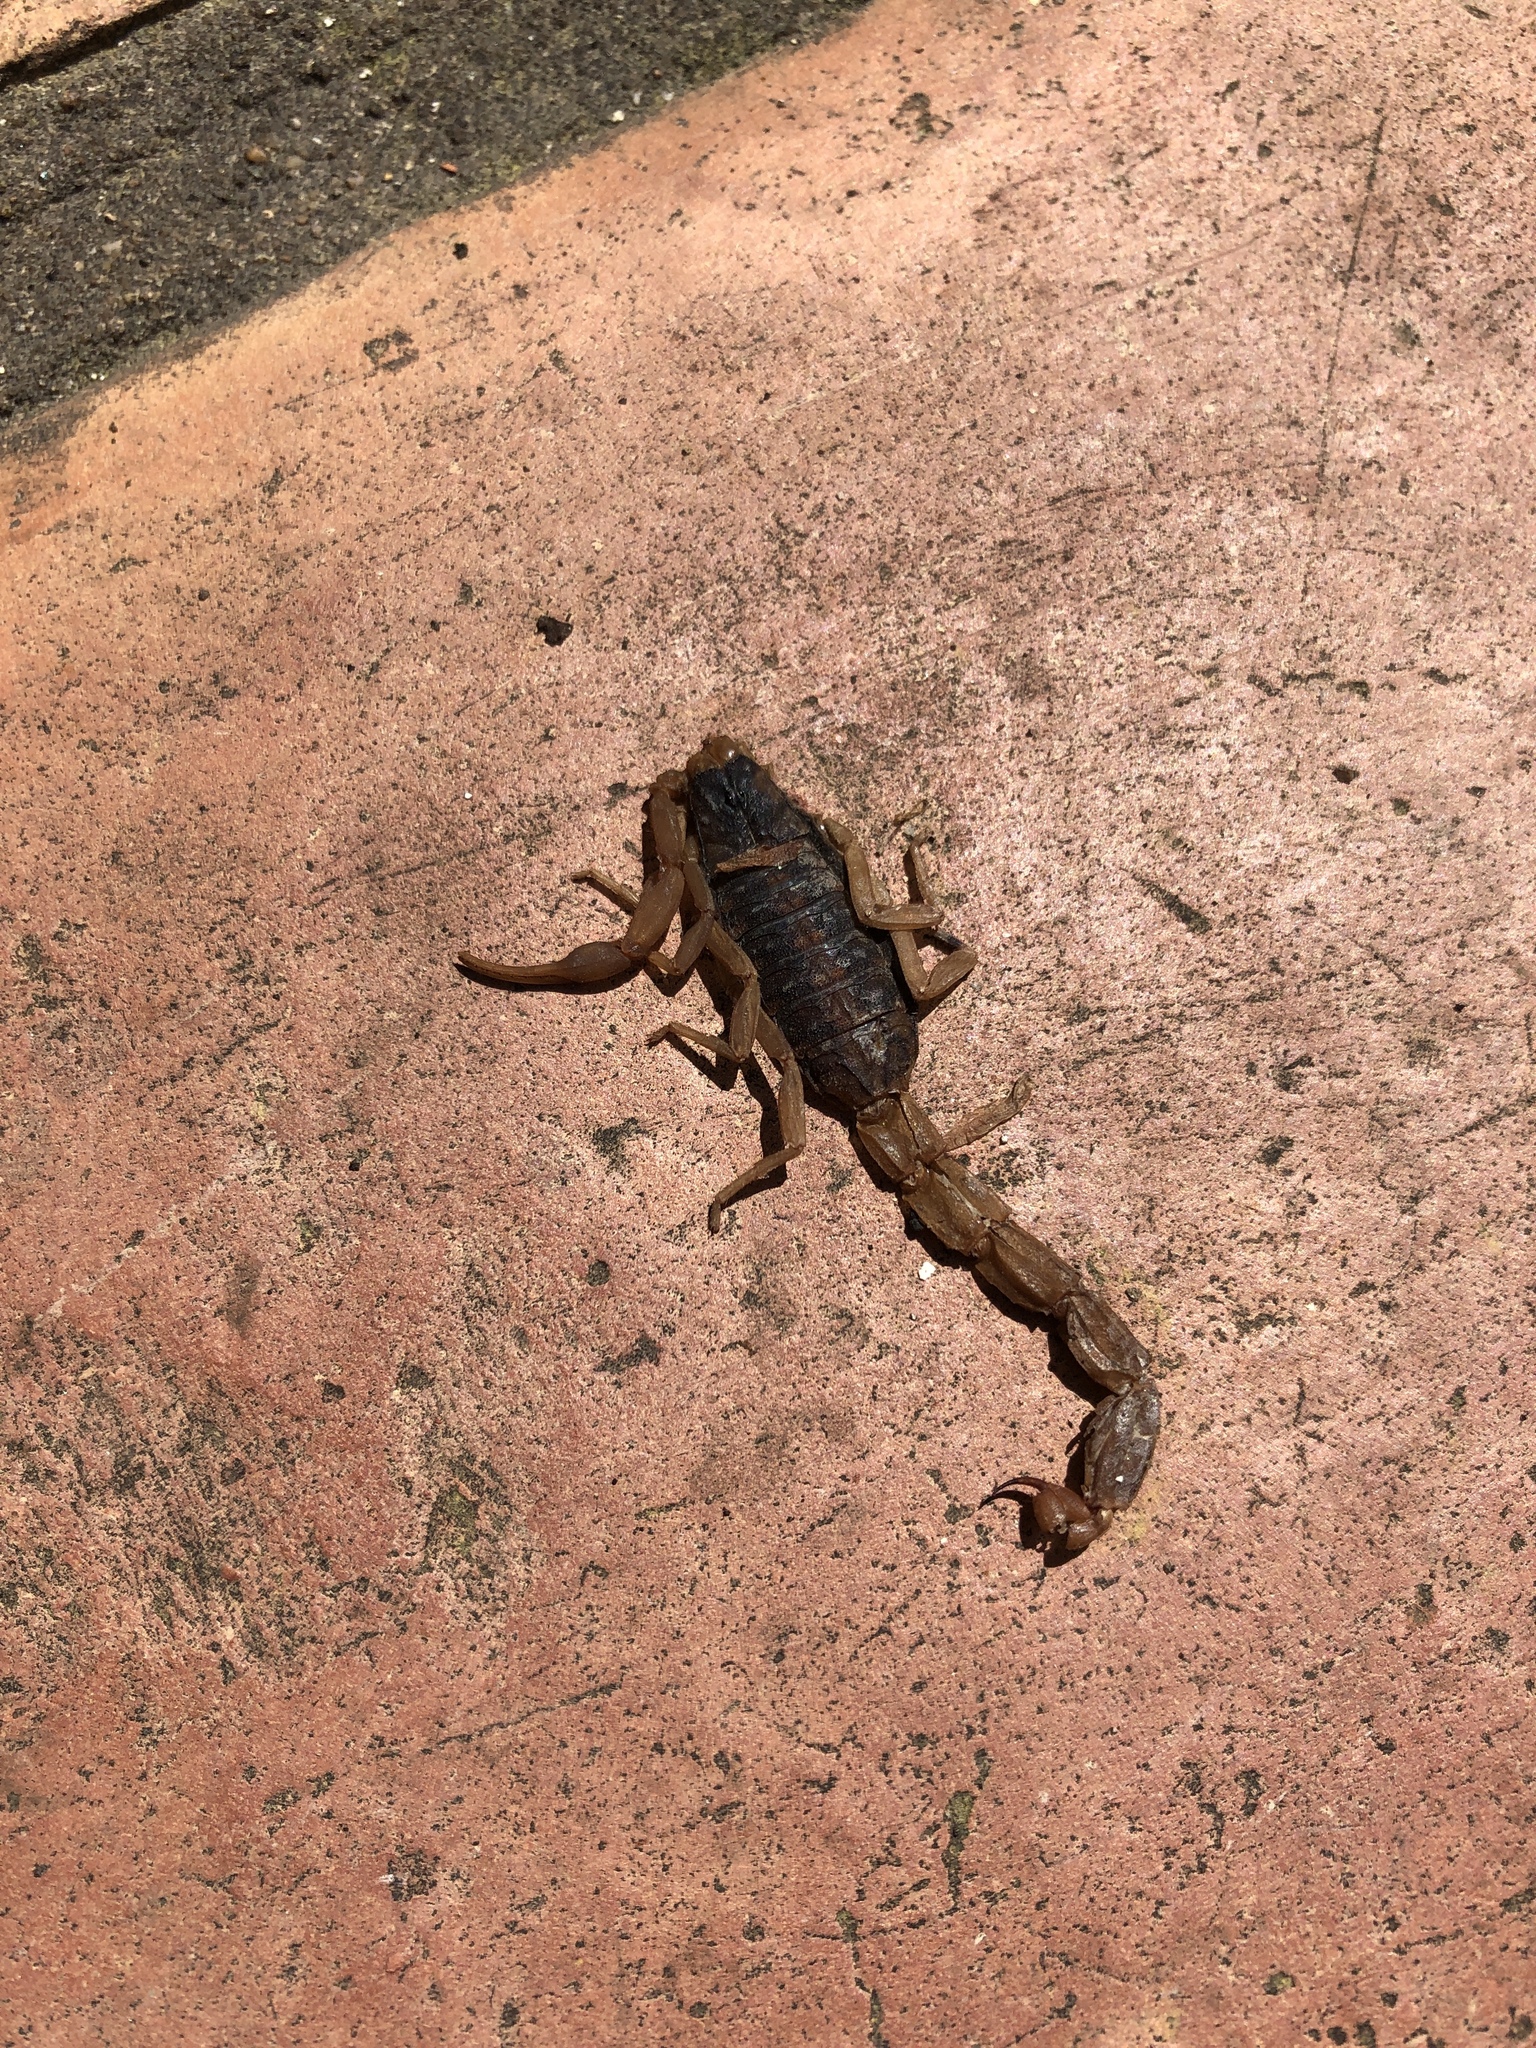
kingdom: Animalia
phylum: Arthropoda
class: Arachnida
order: Scorpiones
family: Buthidae
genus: Centruroides
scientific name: Centruroides vittatus
